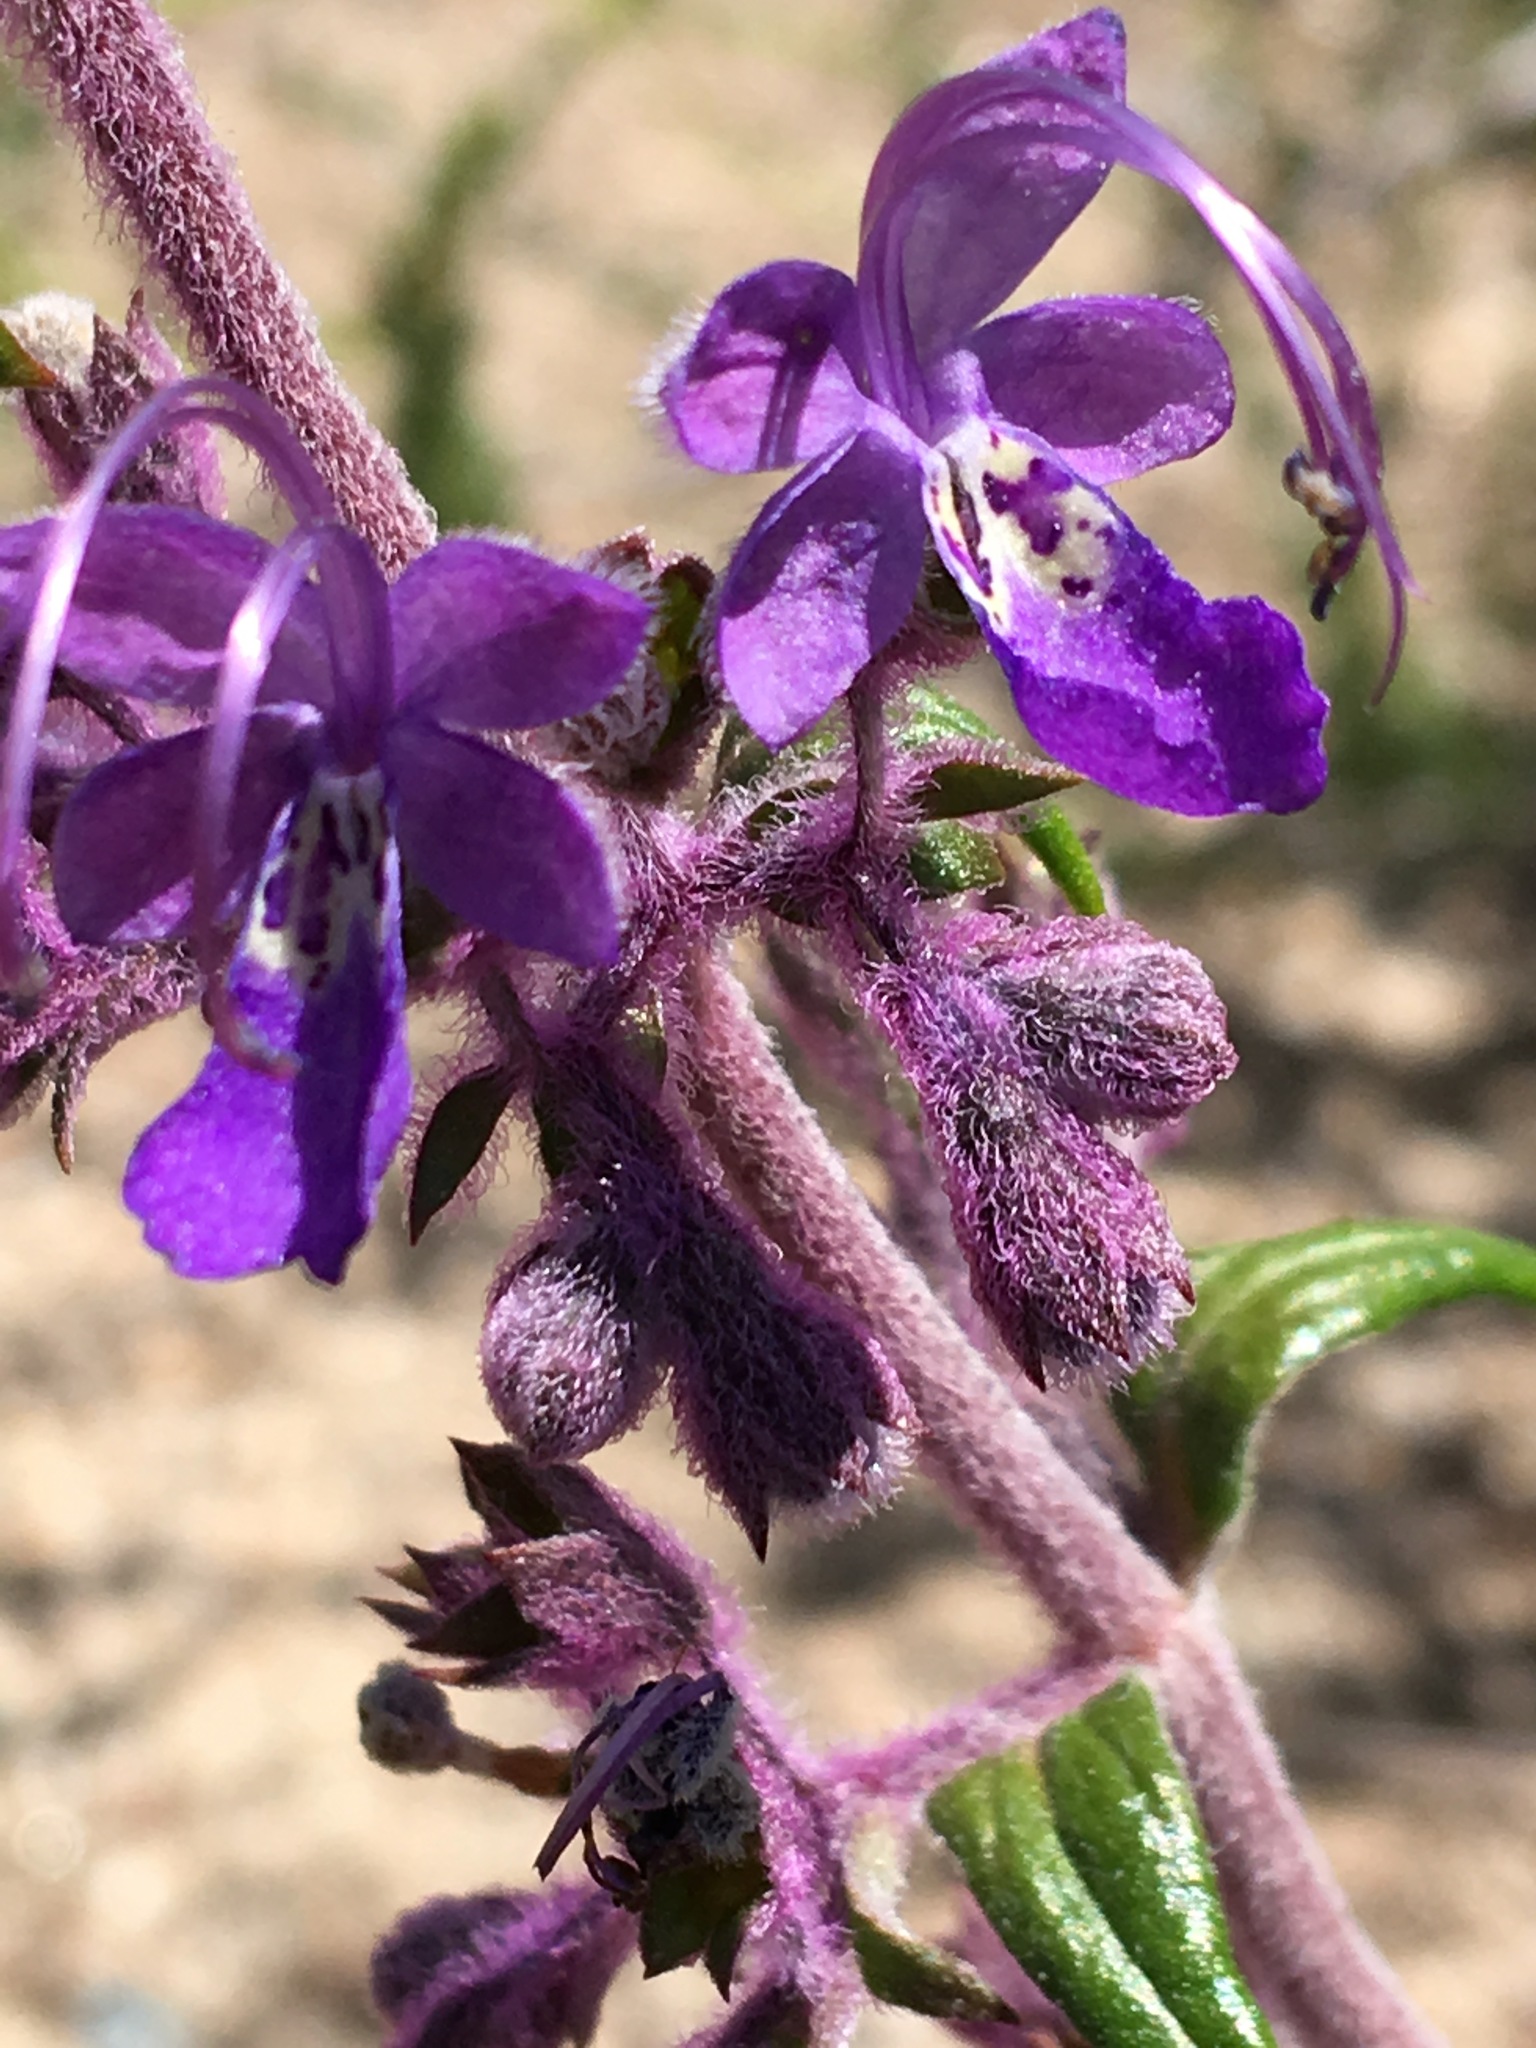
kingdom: Plantae
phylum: Tracheophyta
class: Magnoliopsida
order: Lamiales
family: Lamiaceae
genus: Trichostema
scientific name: Trichostema parishii
